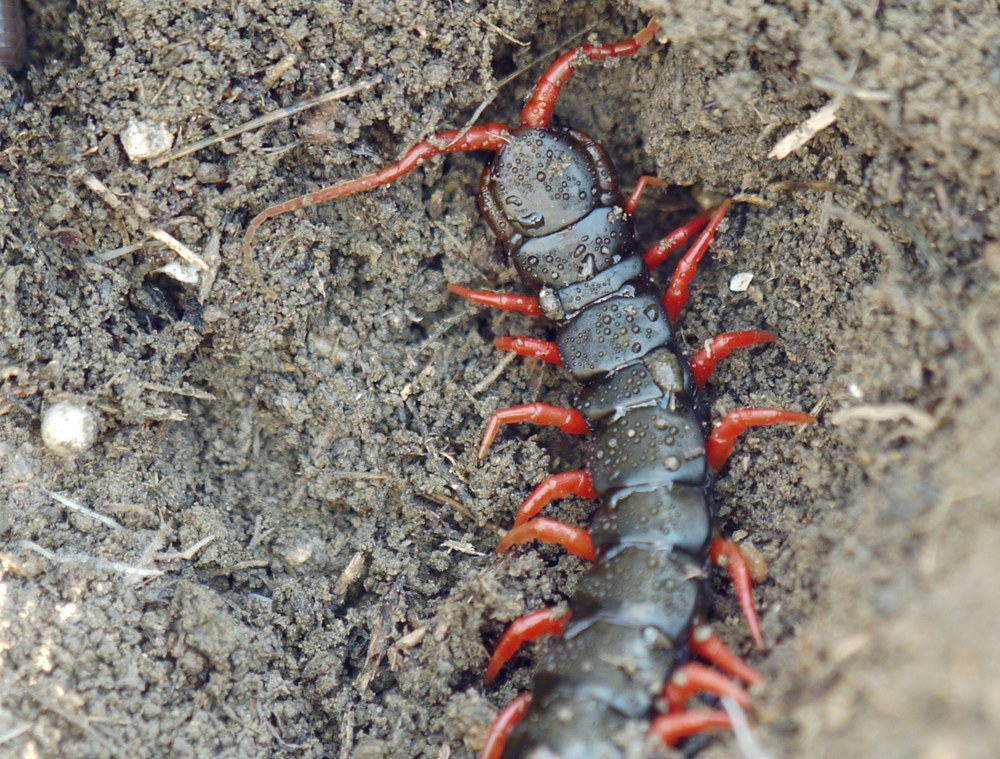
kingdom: Animalia
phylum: Arthropoda
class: Chilopoda
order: Scolopendromorpha
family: Scolopendridae
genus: Scolopendra
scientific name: Scolopendra cingulata
